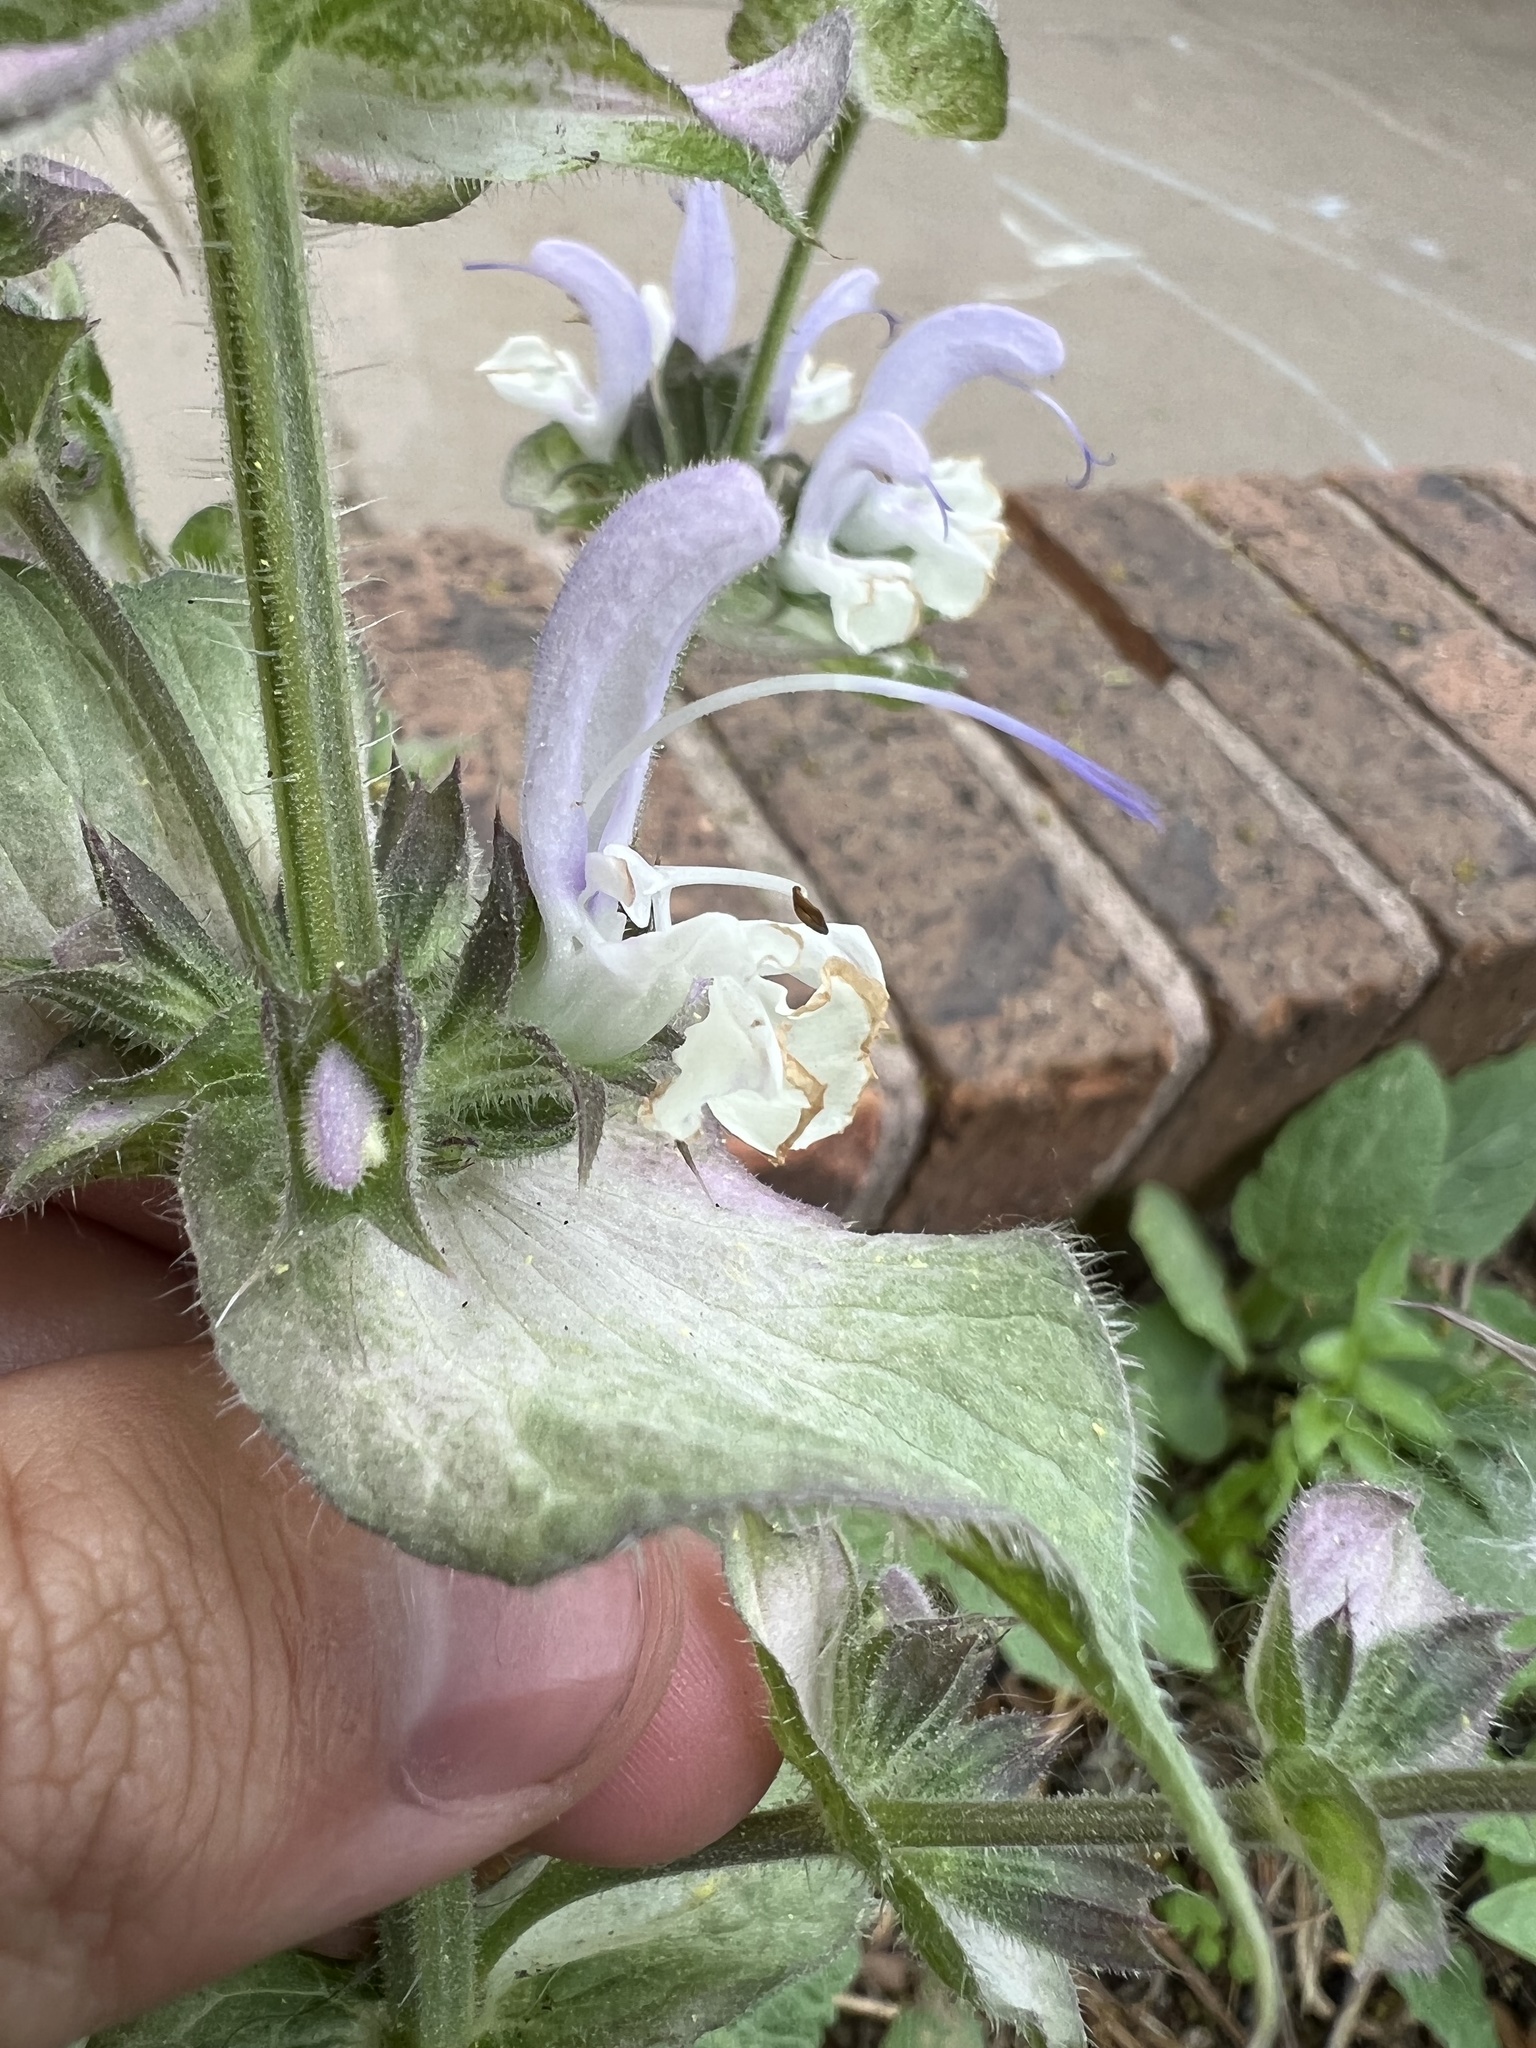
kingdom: Plantae
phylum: Tracheophyta
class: Magnoliopsida
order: Lamiales
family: Lamiaceae
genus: Salvia
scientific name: Salvia sclarea
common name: Clary
